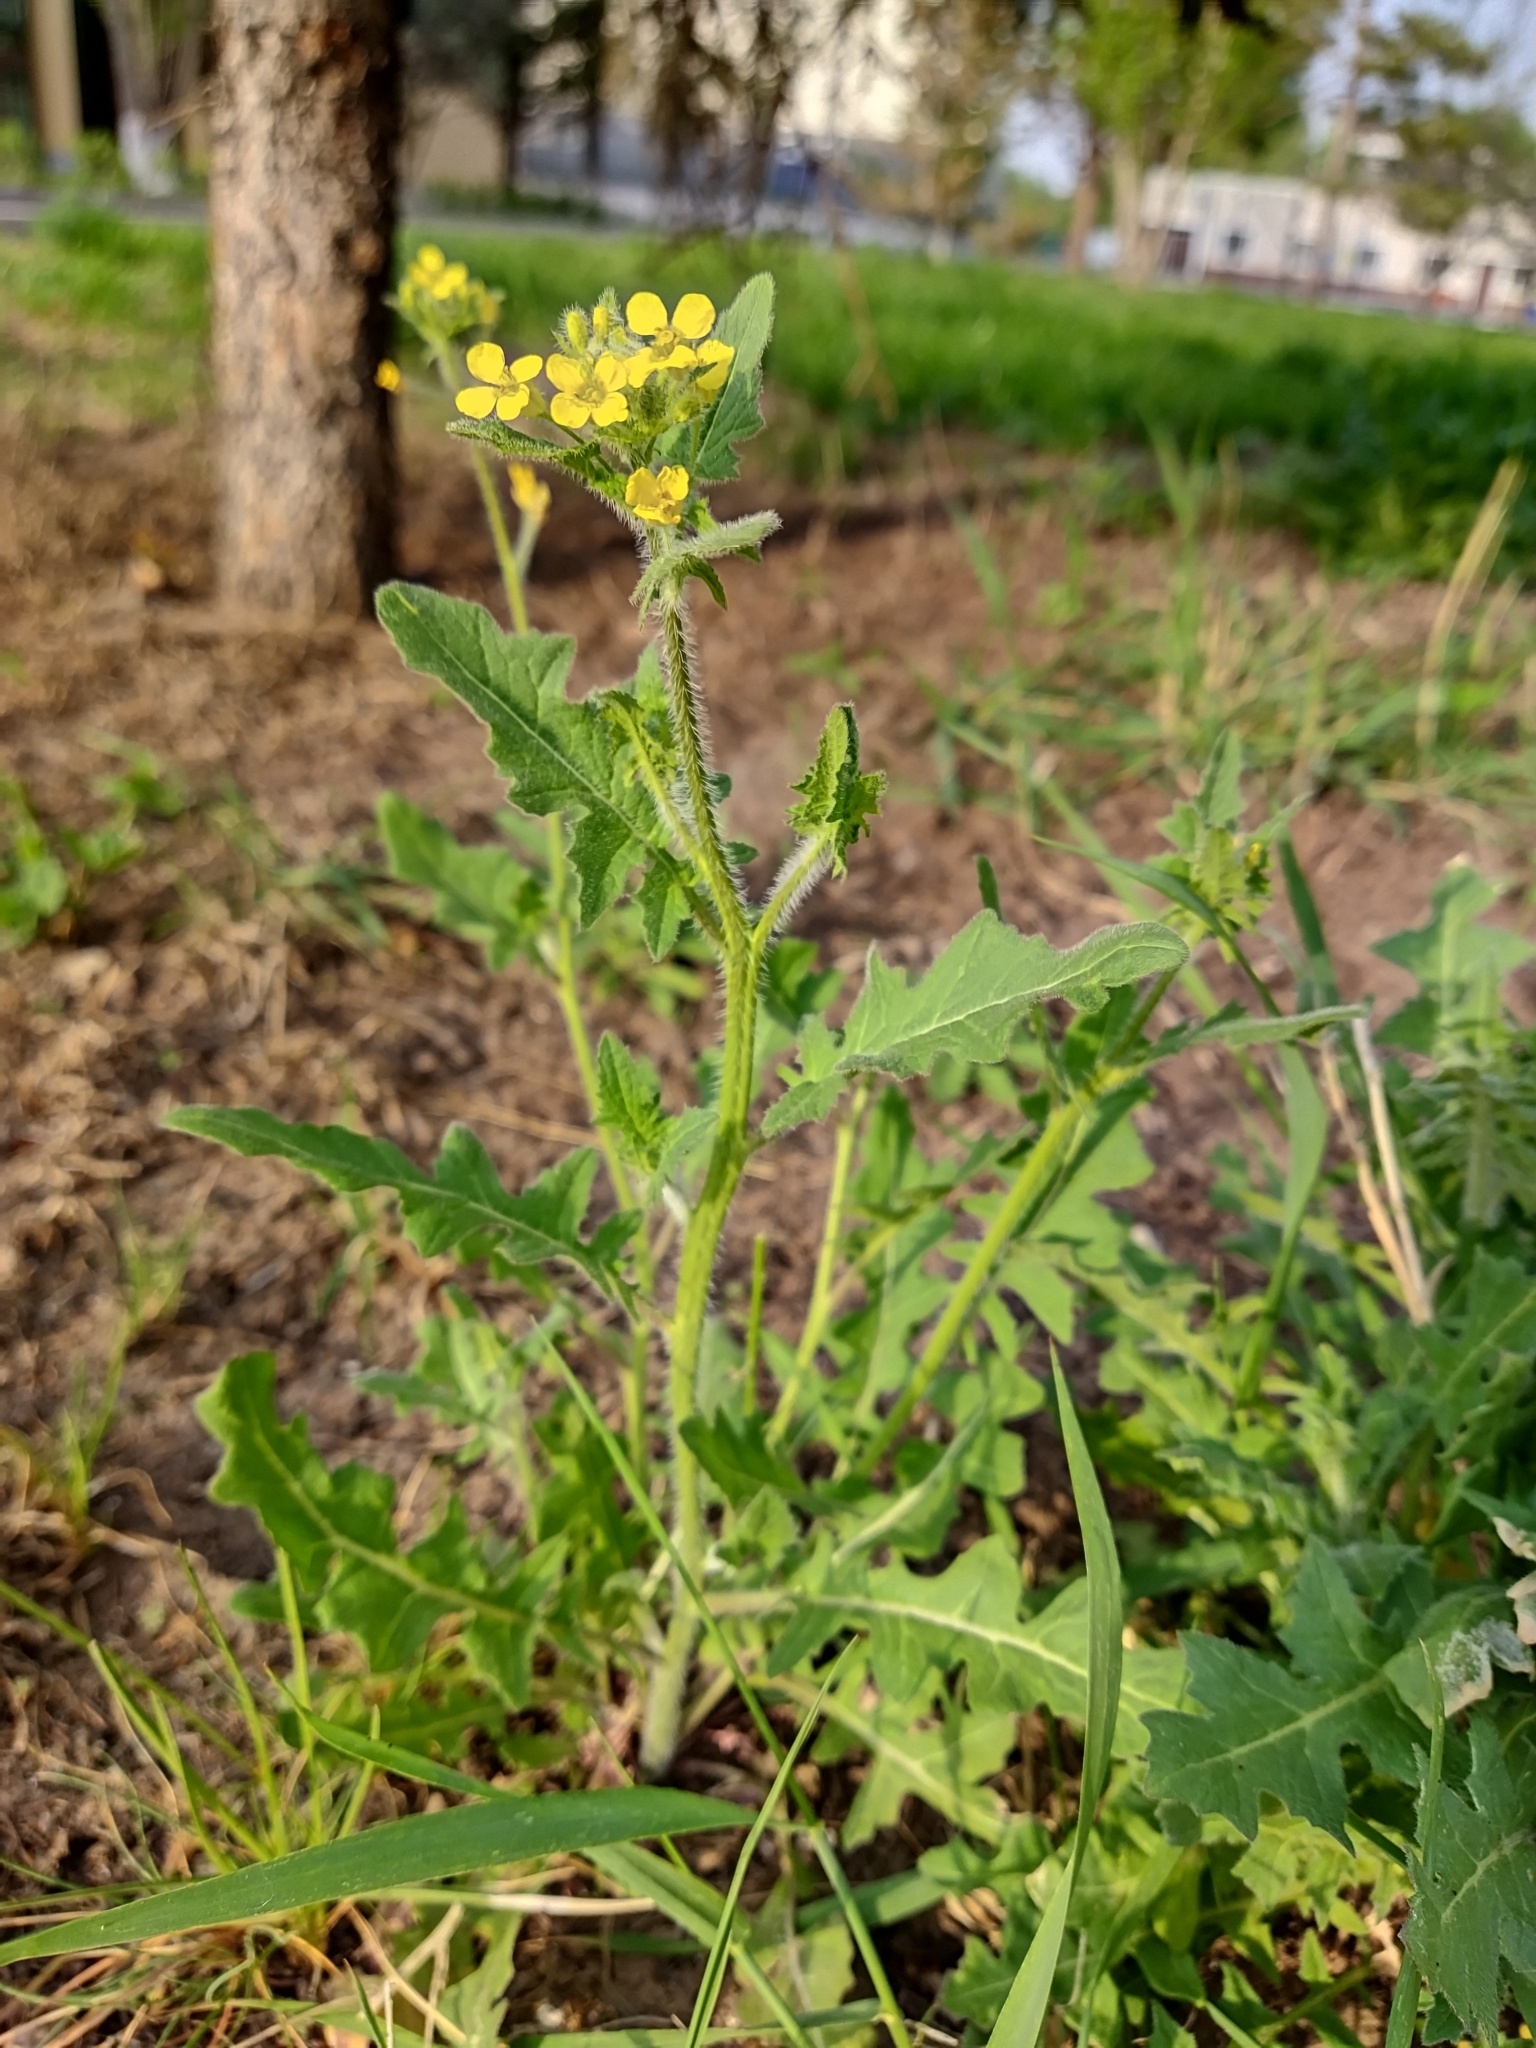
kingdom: Plantae
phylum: Tracheophyta
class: Magnoliopsida
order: Brassicales
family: Brassicaceae
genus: Sisymbrium
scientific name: Sisymbrium loeselii
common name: False london-rocket
